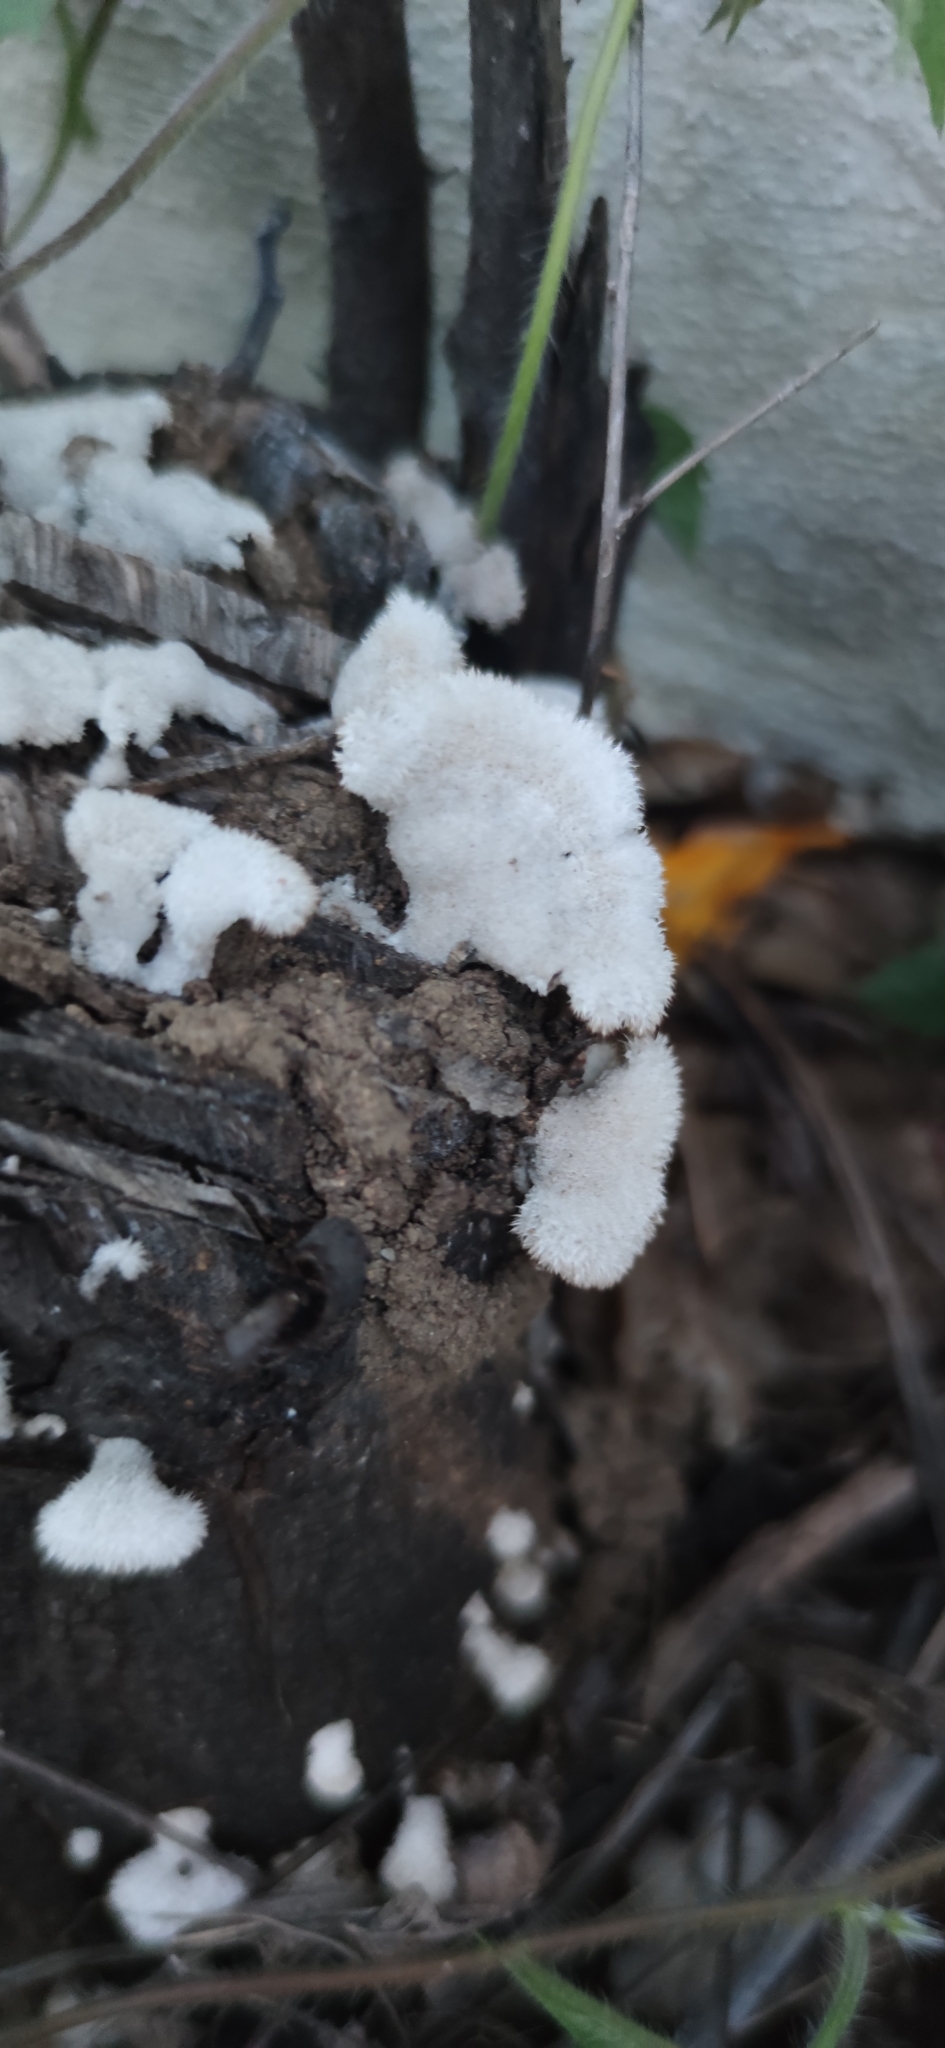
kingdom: Fungi
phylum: Basidiomycota
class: Agaricomycetes
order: Agaricales
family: Schizophyllaceae
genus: Schizophyllum
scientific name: Schizophyllum commune
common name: Common porecrust
